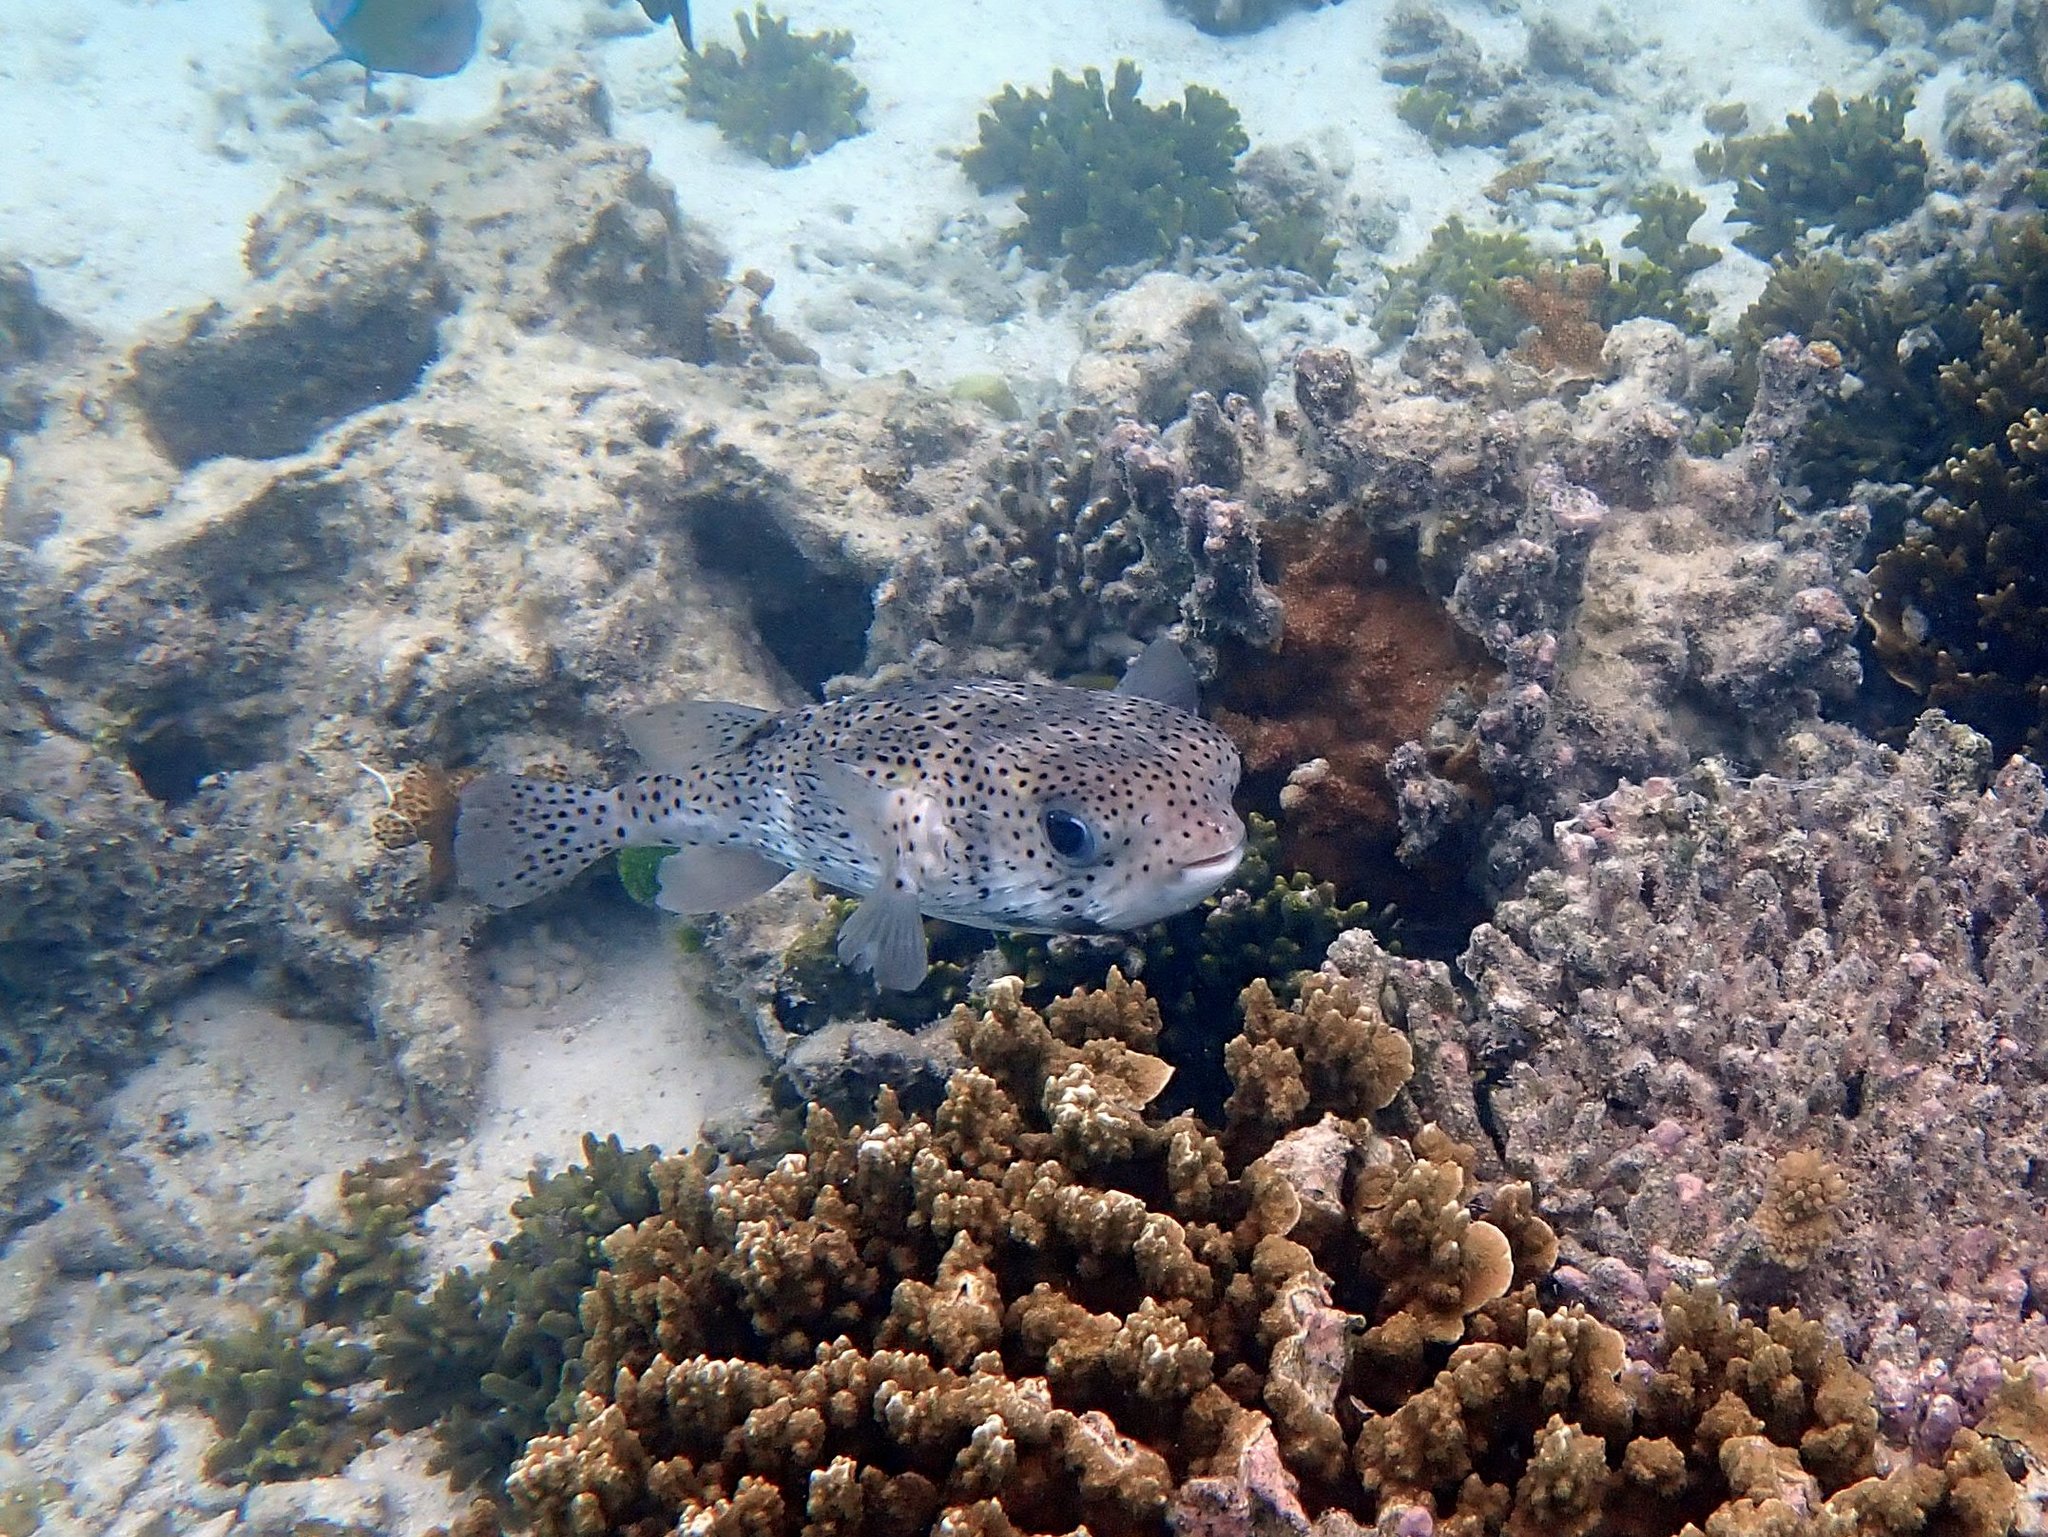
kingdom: Animalia
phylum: Chordata
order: Tetraodontiformes
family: Diodontidae
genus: Diodon
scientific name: Diodon hystrix
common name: Giant porcupinefish
